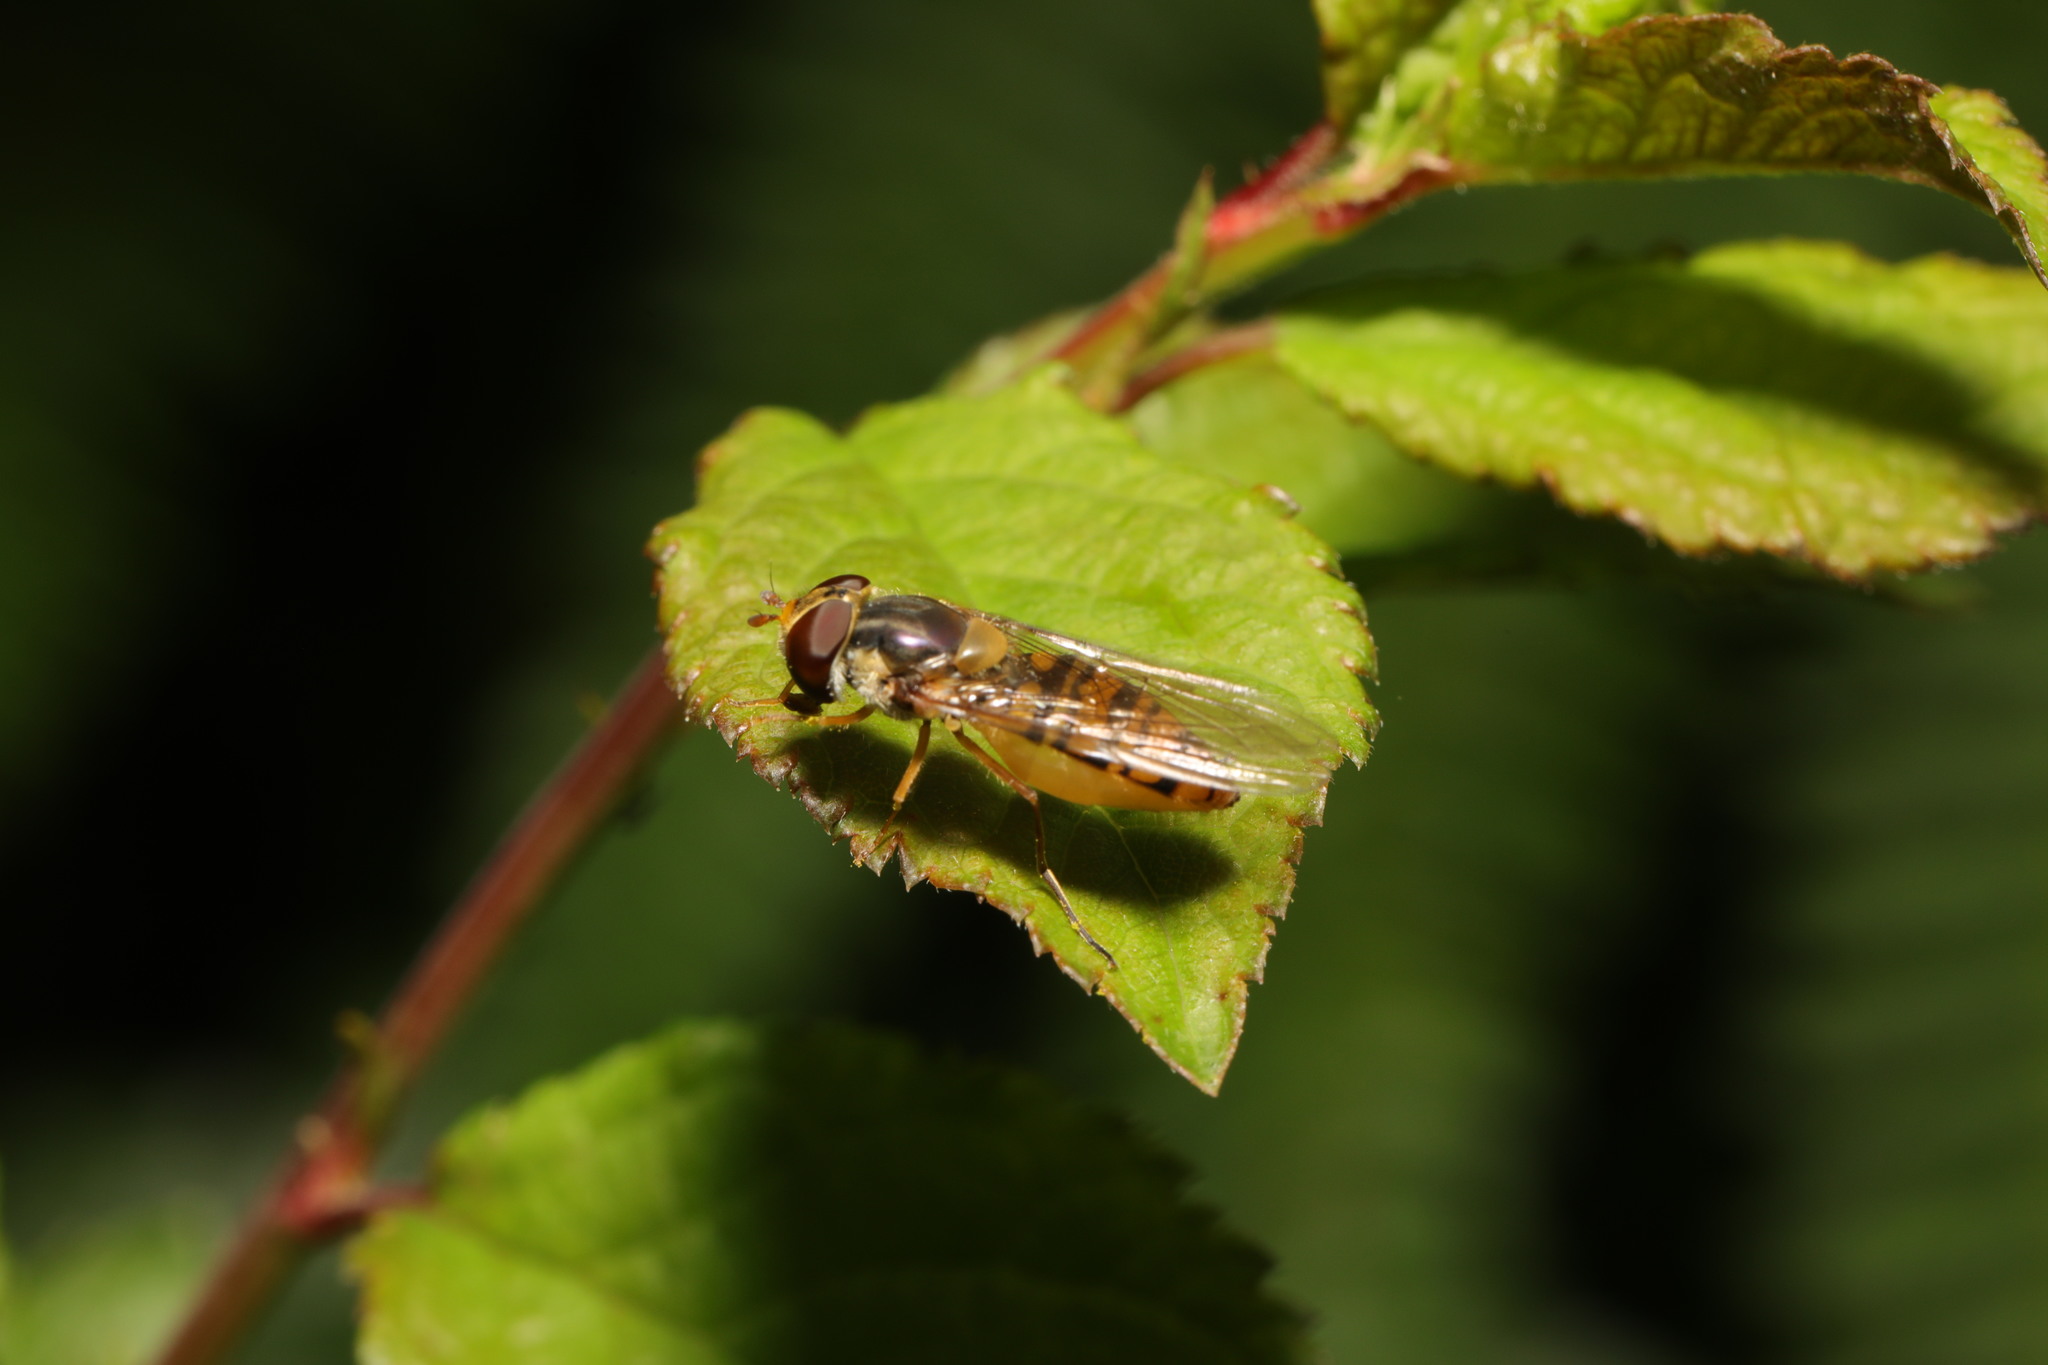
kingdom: Animalia
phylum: Arthropoda
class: Insecta
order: Diptera
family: Syrphidae
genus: Episyrphus
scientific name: Episyrphus balteatus
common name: Marmalade hoverfly
